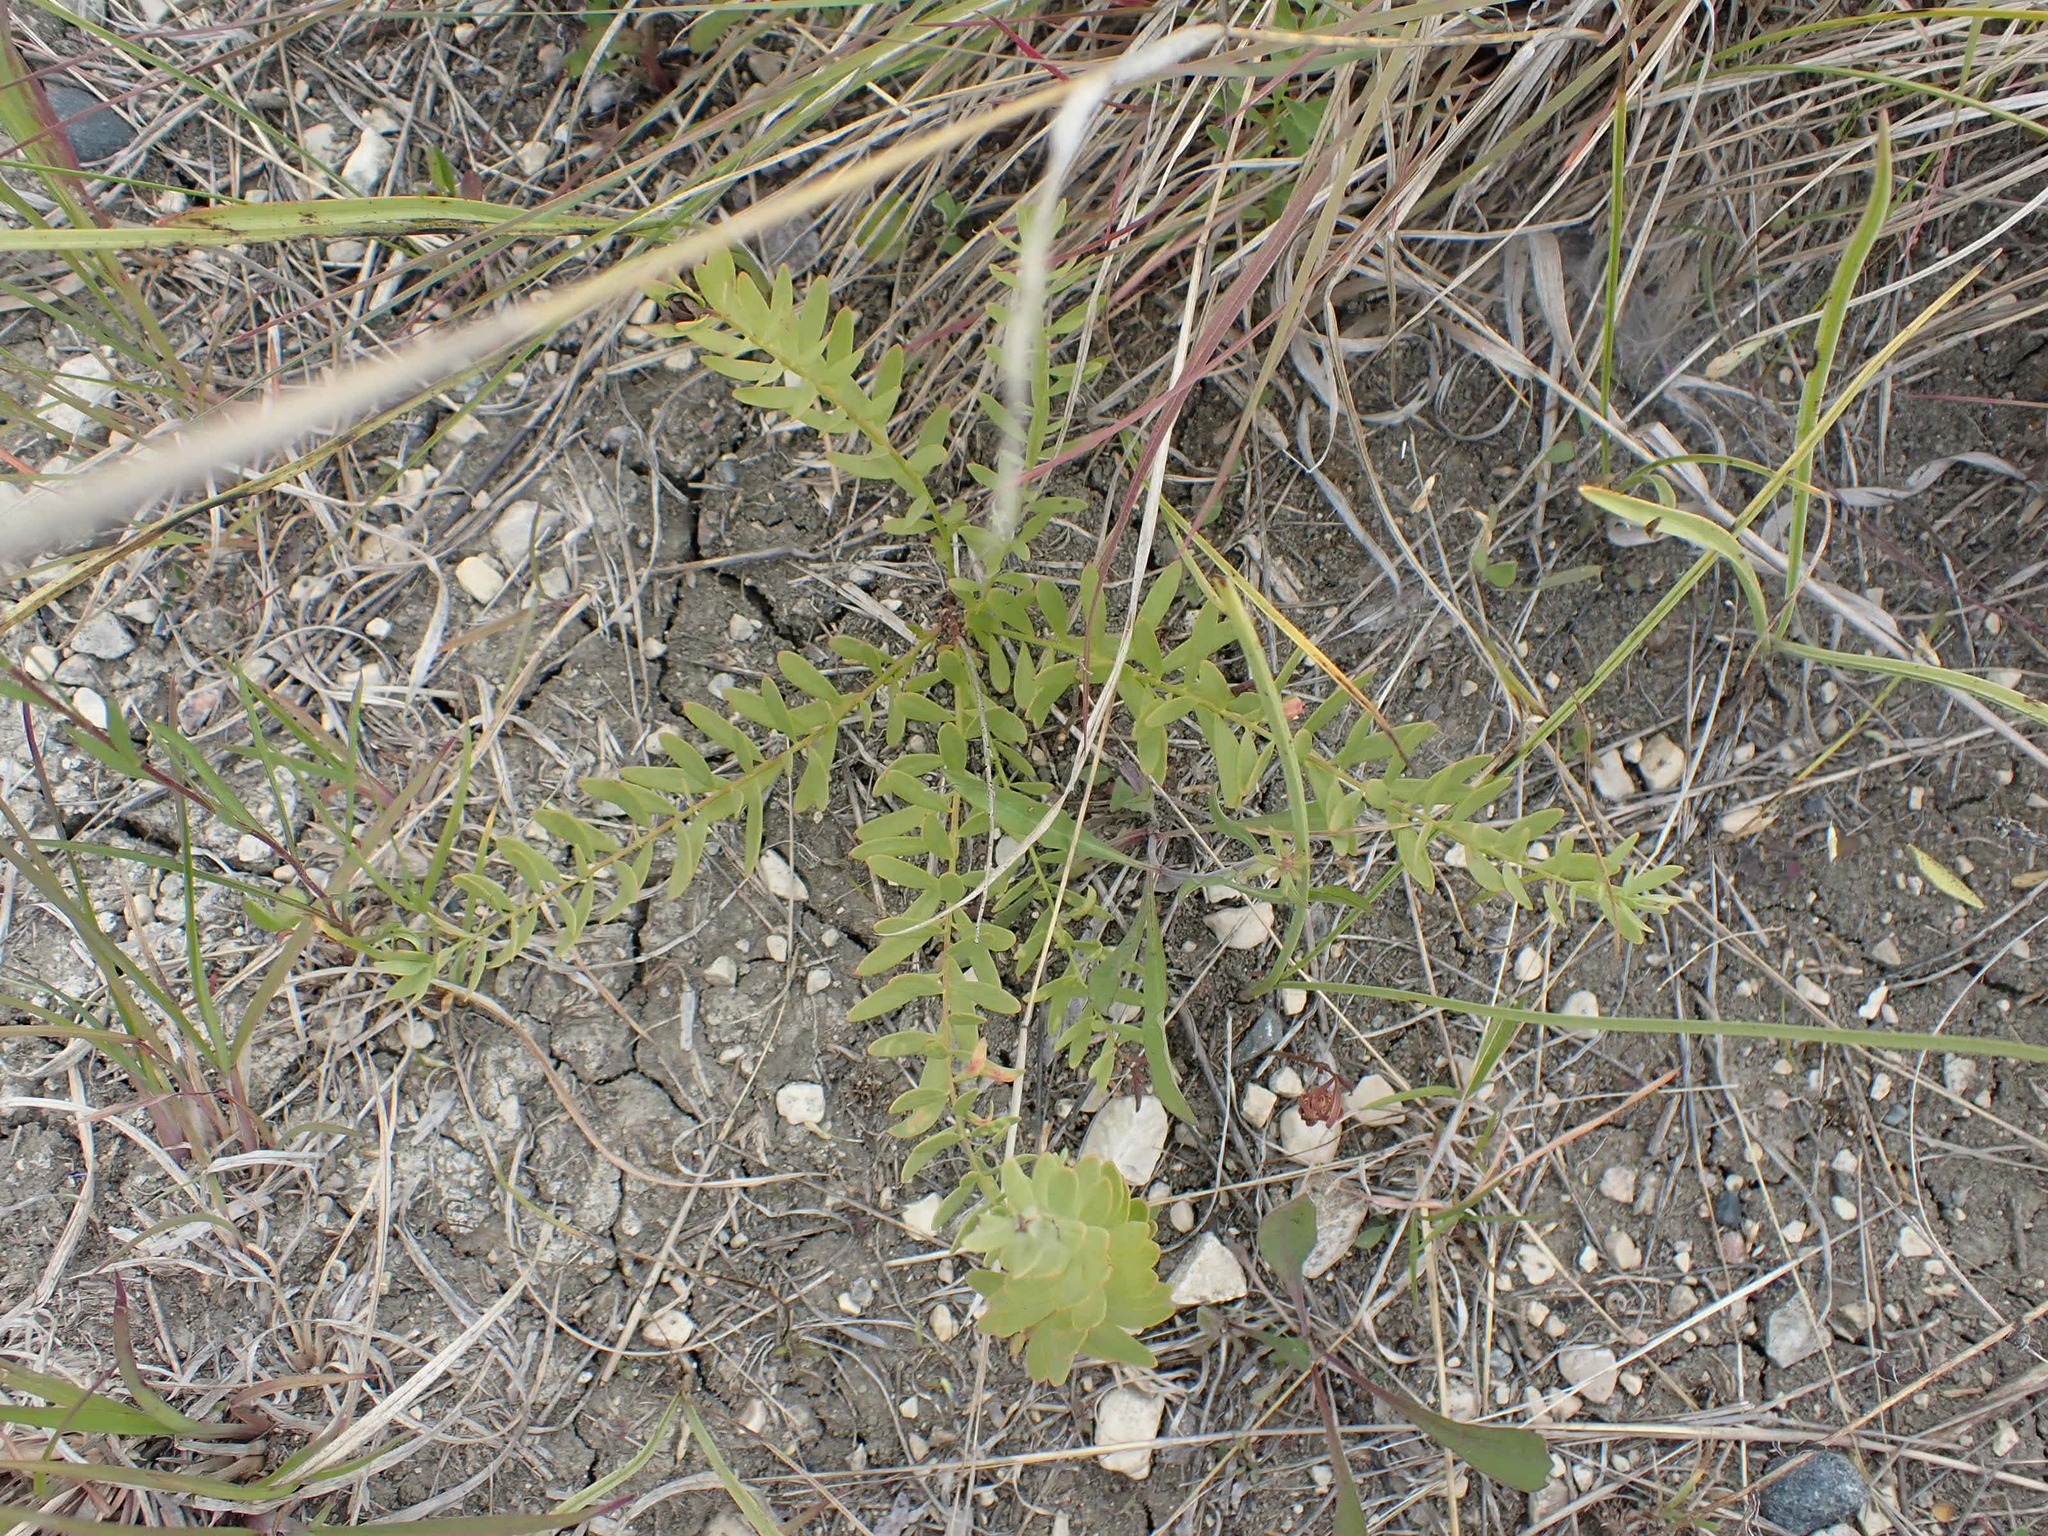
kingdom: Plantae
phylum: Tracheophyta
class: Magnoliopsida
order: Santalales
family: Comandraceae
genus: Comandra
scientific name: Comandra umbellata
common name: Bastard toadflax
